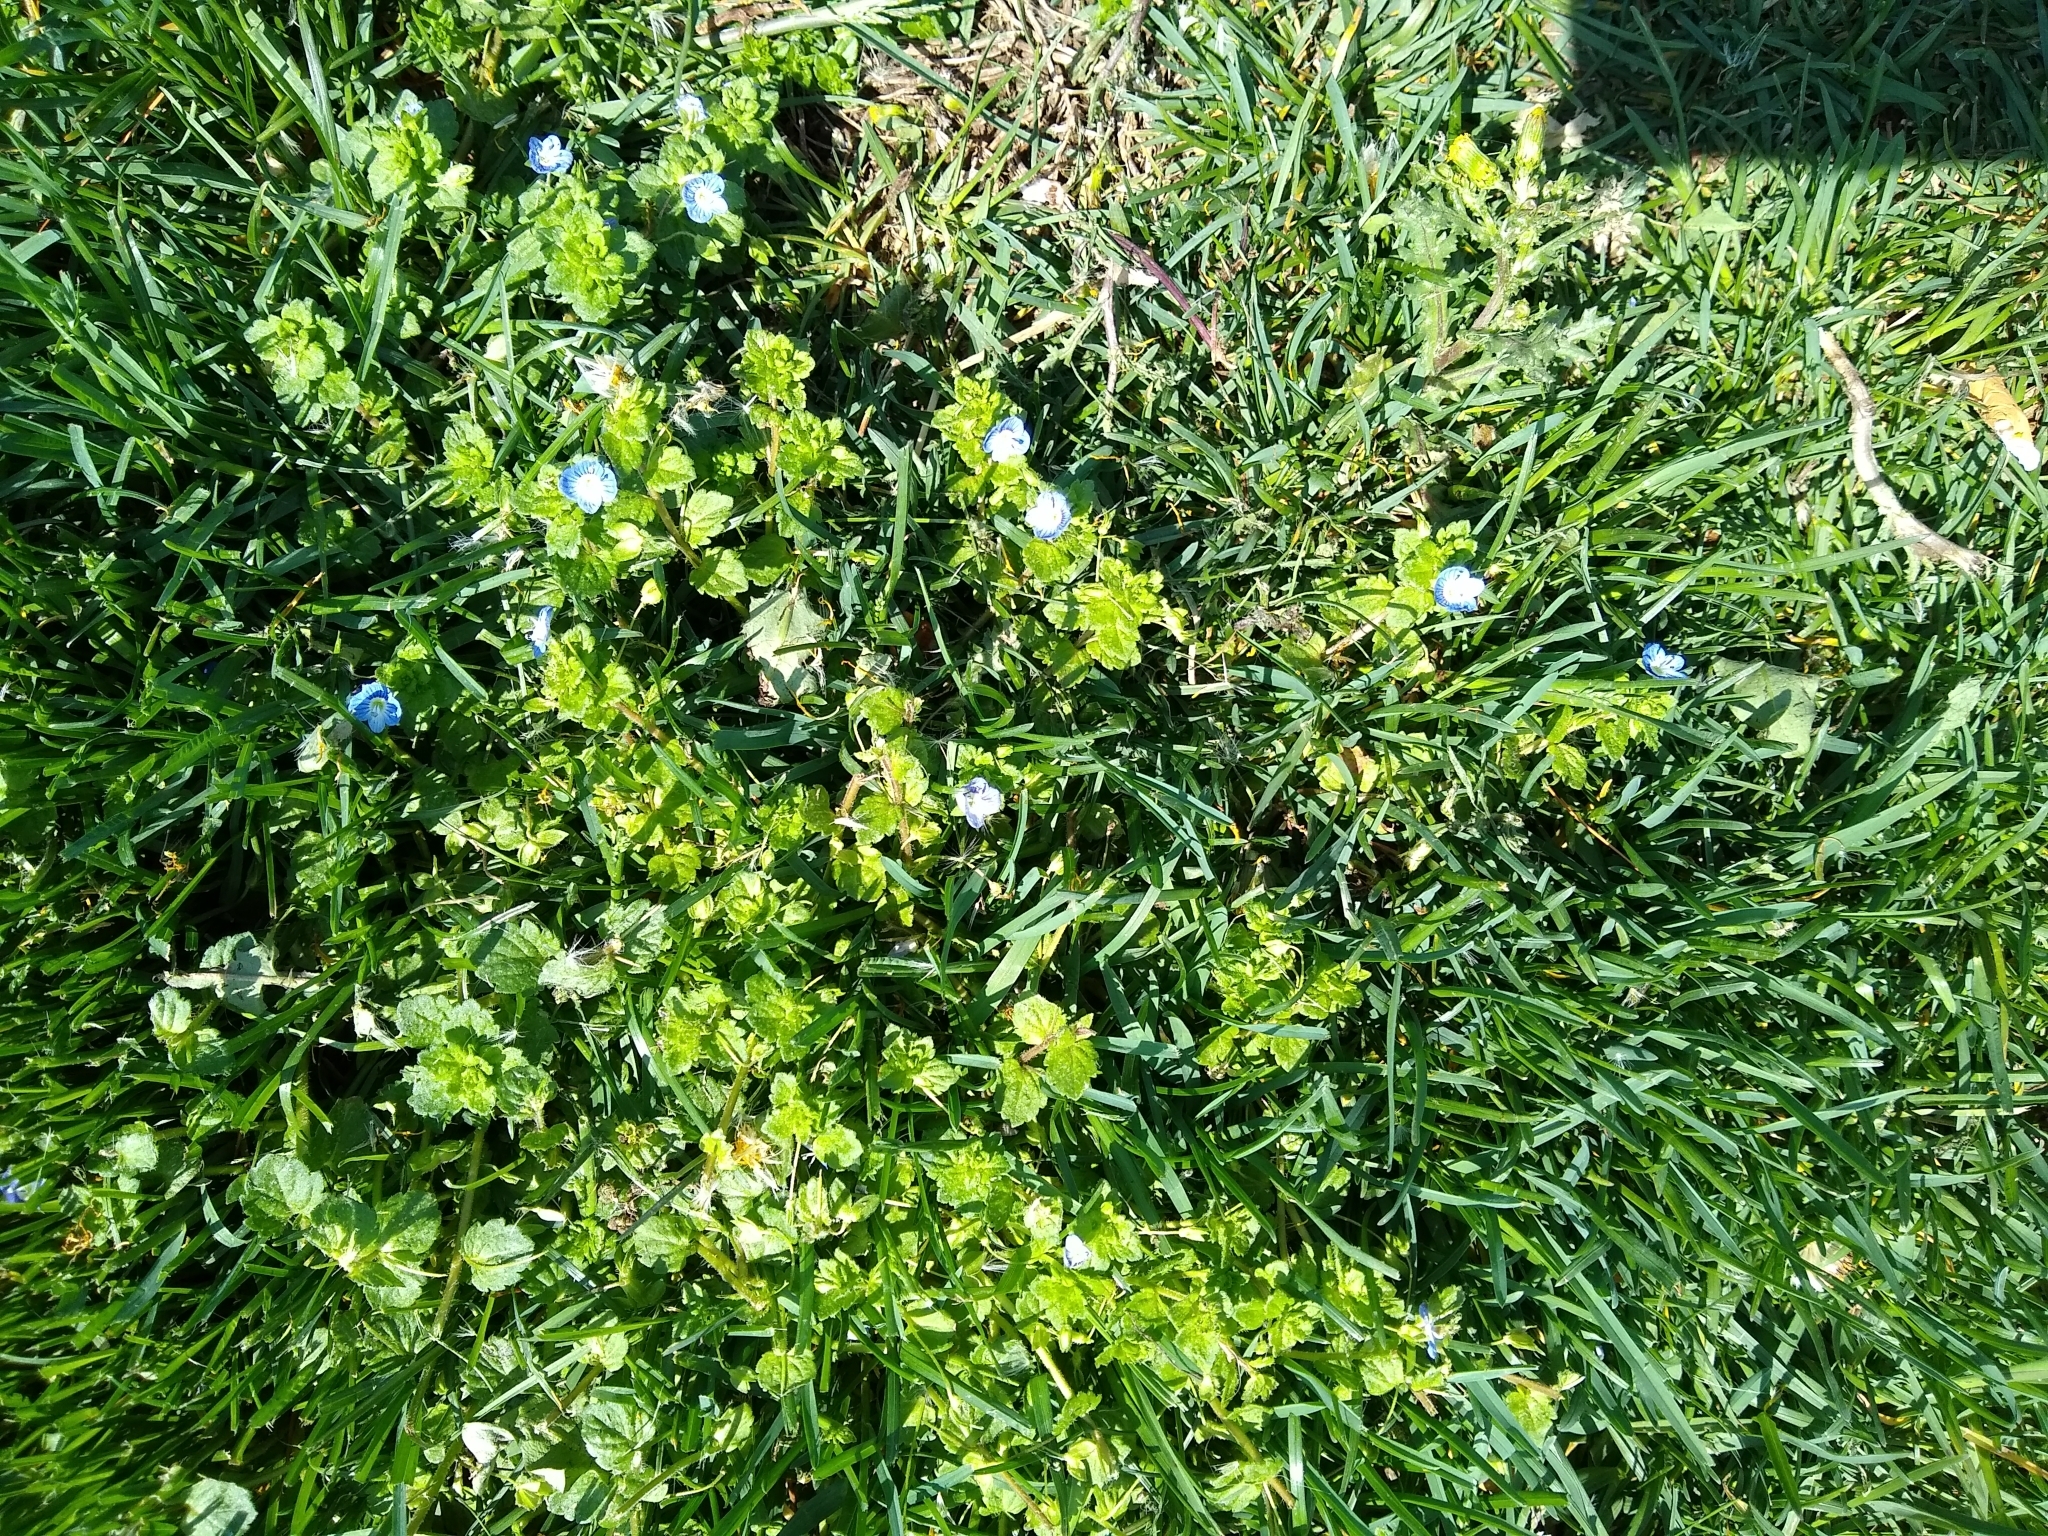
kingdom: Plantae
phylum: Tracheophyta
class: Magnoliopsida
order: Lamiales
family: Plantaginaceae
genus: Veronica
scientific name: Veronica persica
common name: Common field-speedwell
